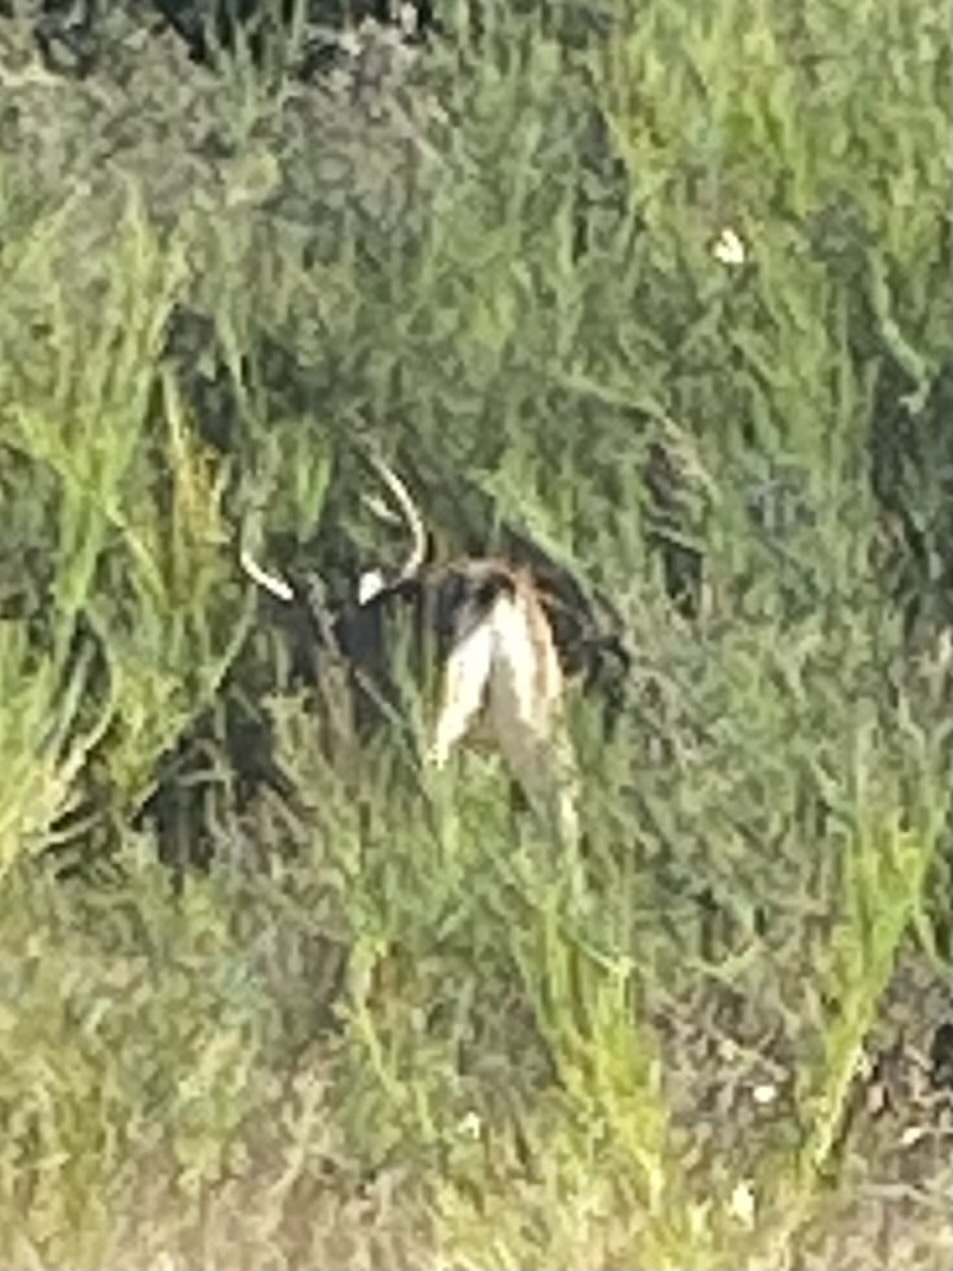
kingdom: Animalia
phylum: Chordata
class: Mammalia
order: Artiodactyla
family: Cervidae
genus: Odocoileus
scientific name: Odocoileus hemionus
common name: Mule deer
